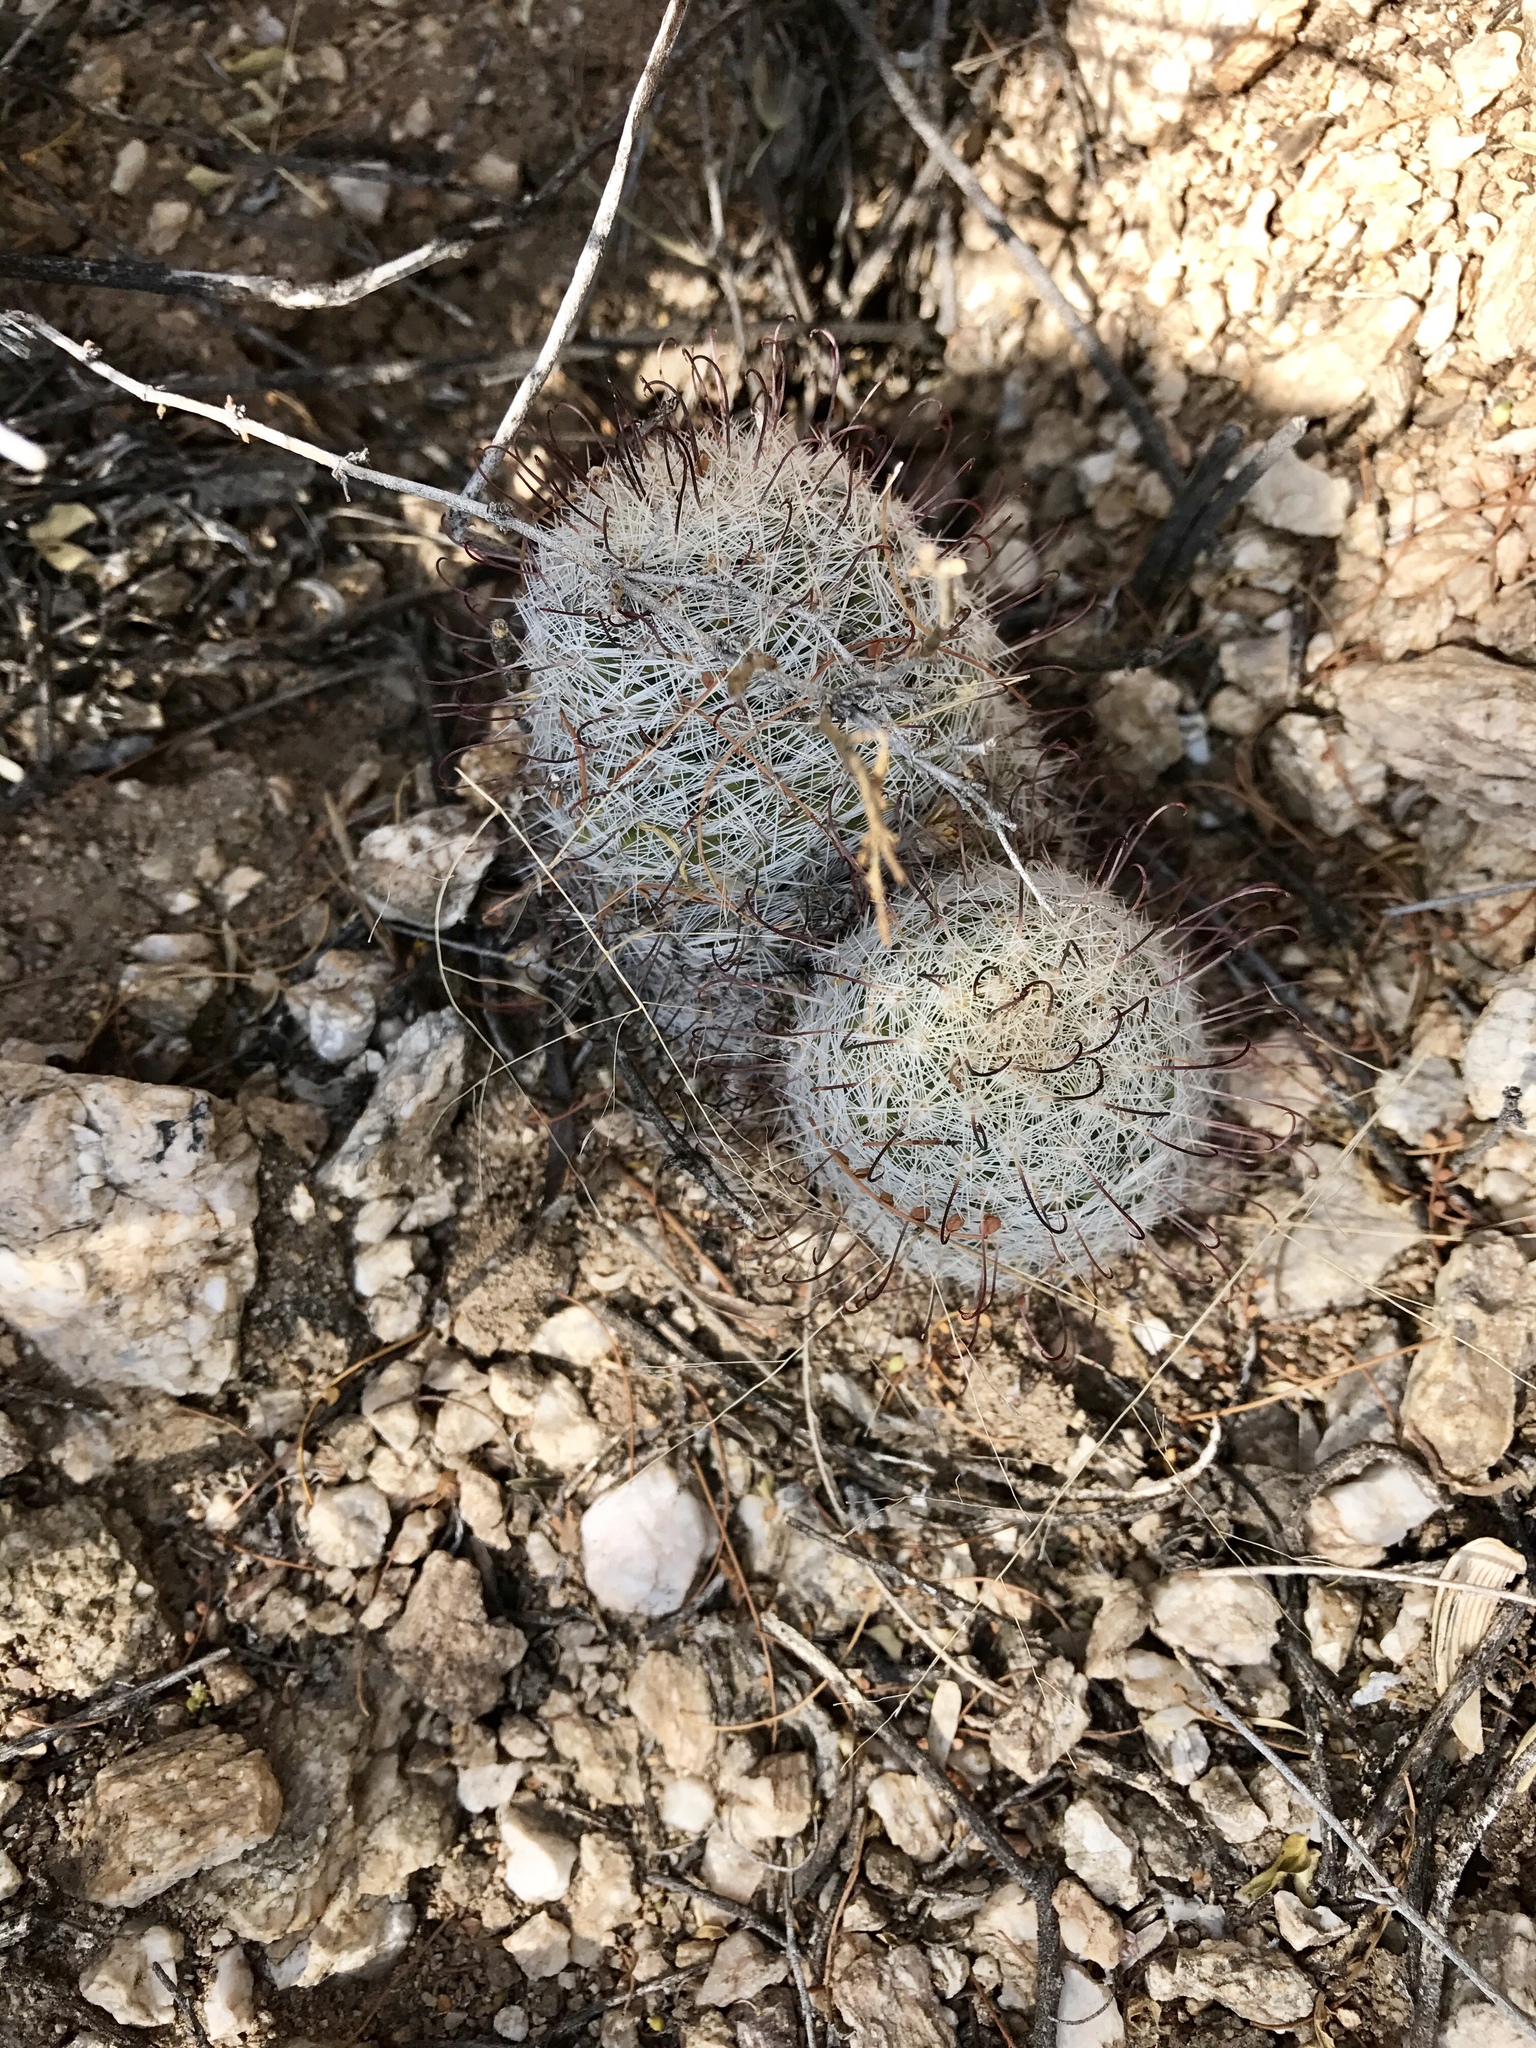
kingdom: Plantae
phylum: Tracheophyta
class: Magnoliopsida
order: Caryophyllales
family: Cactaceae
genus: Cochemiea
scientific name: Cochemiea grahamii
